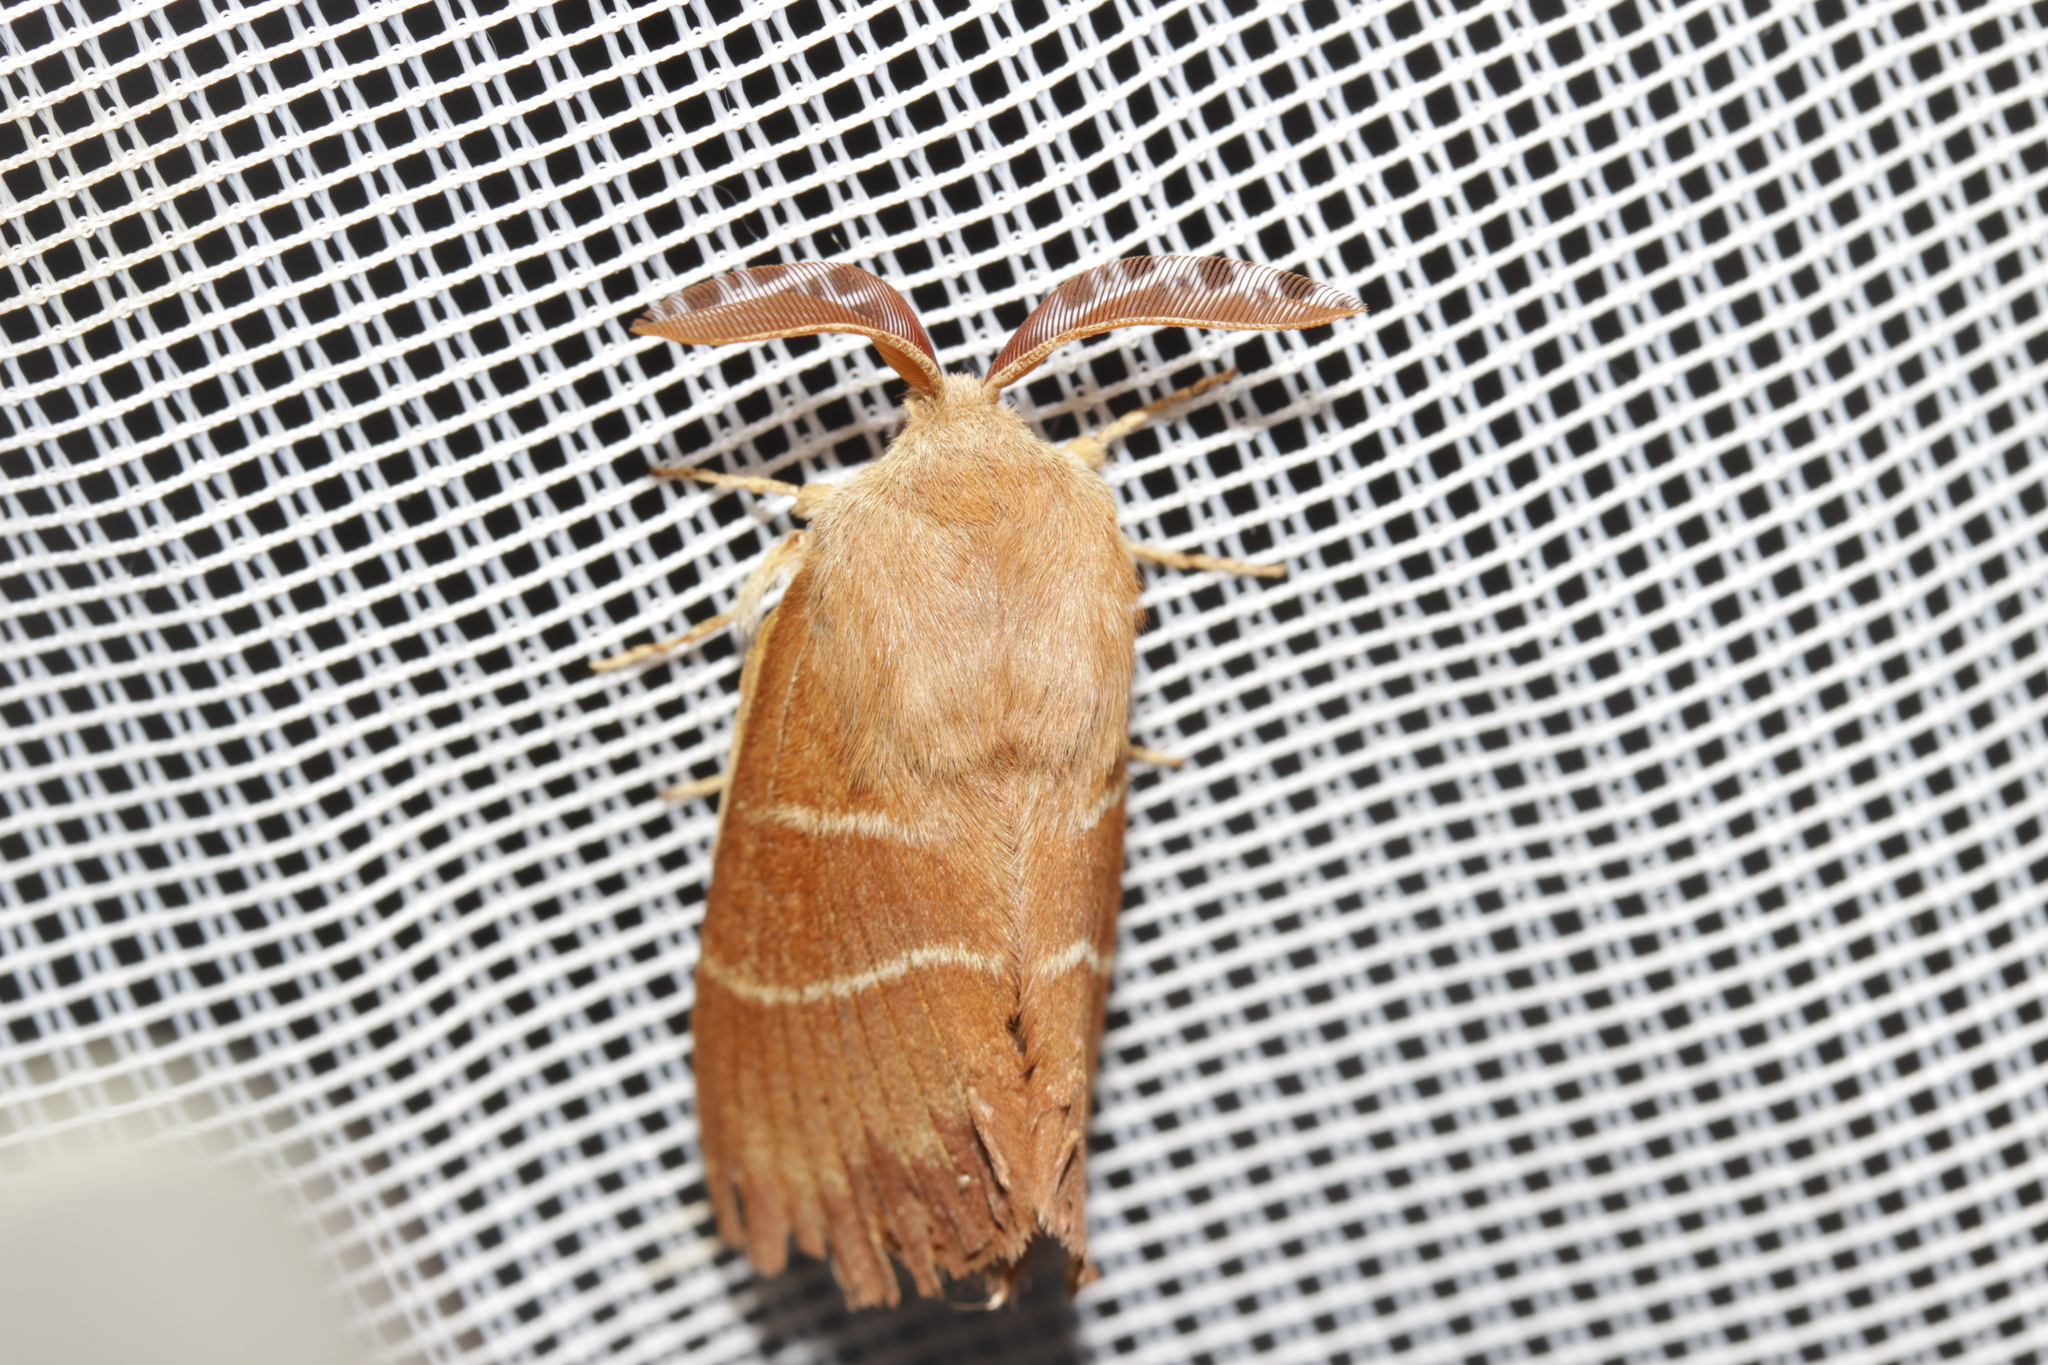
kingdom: Animalia
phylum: Arthropoda
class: Insecta
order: Lepidoptera
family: Lasiocampidae
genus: Macrothylacia
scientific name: Macrothylacia rubi
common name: Fox moth
